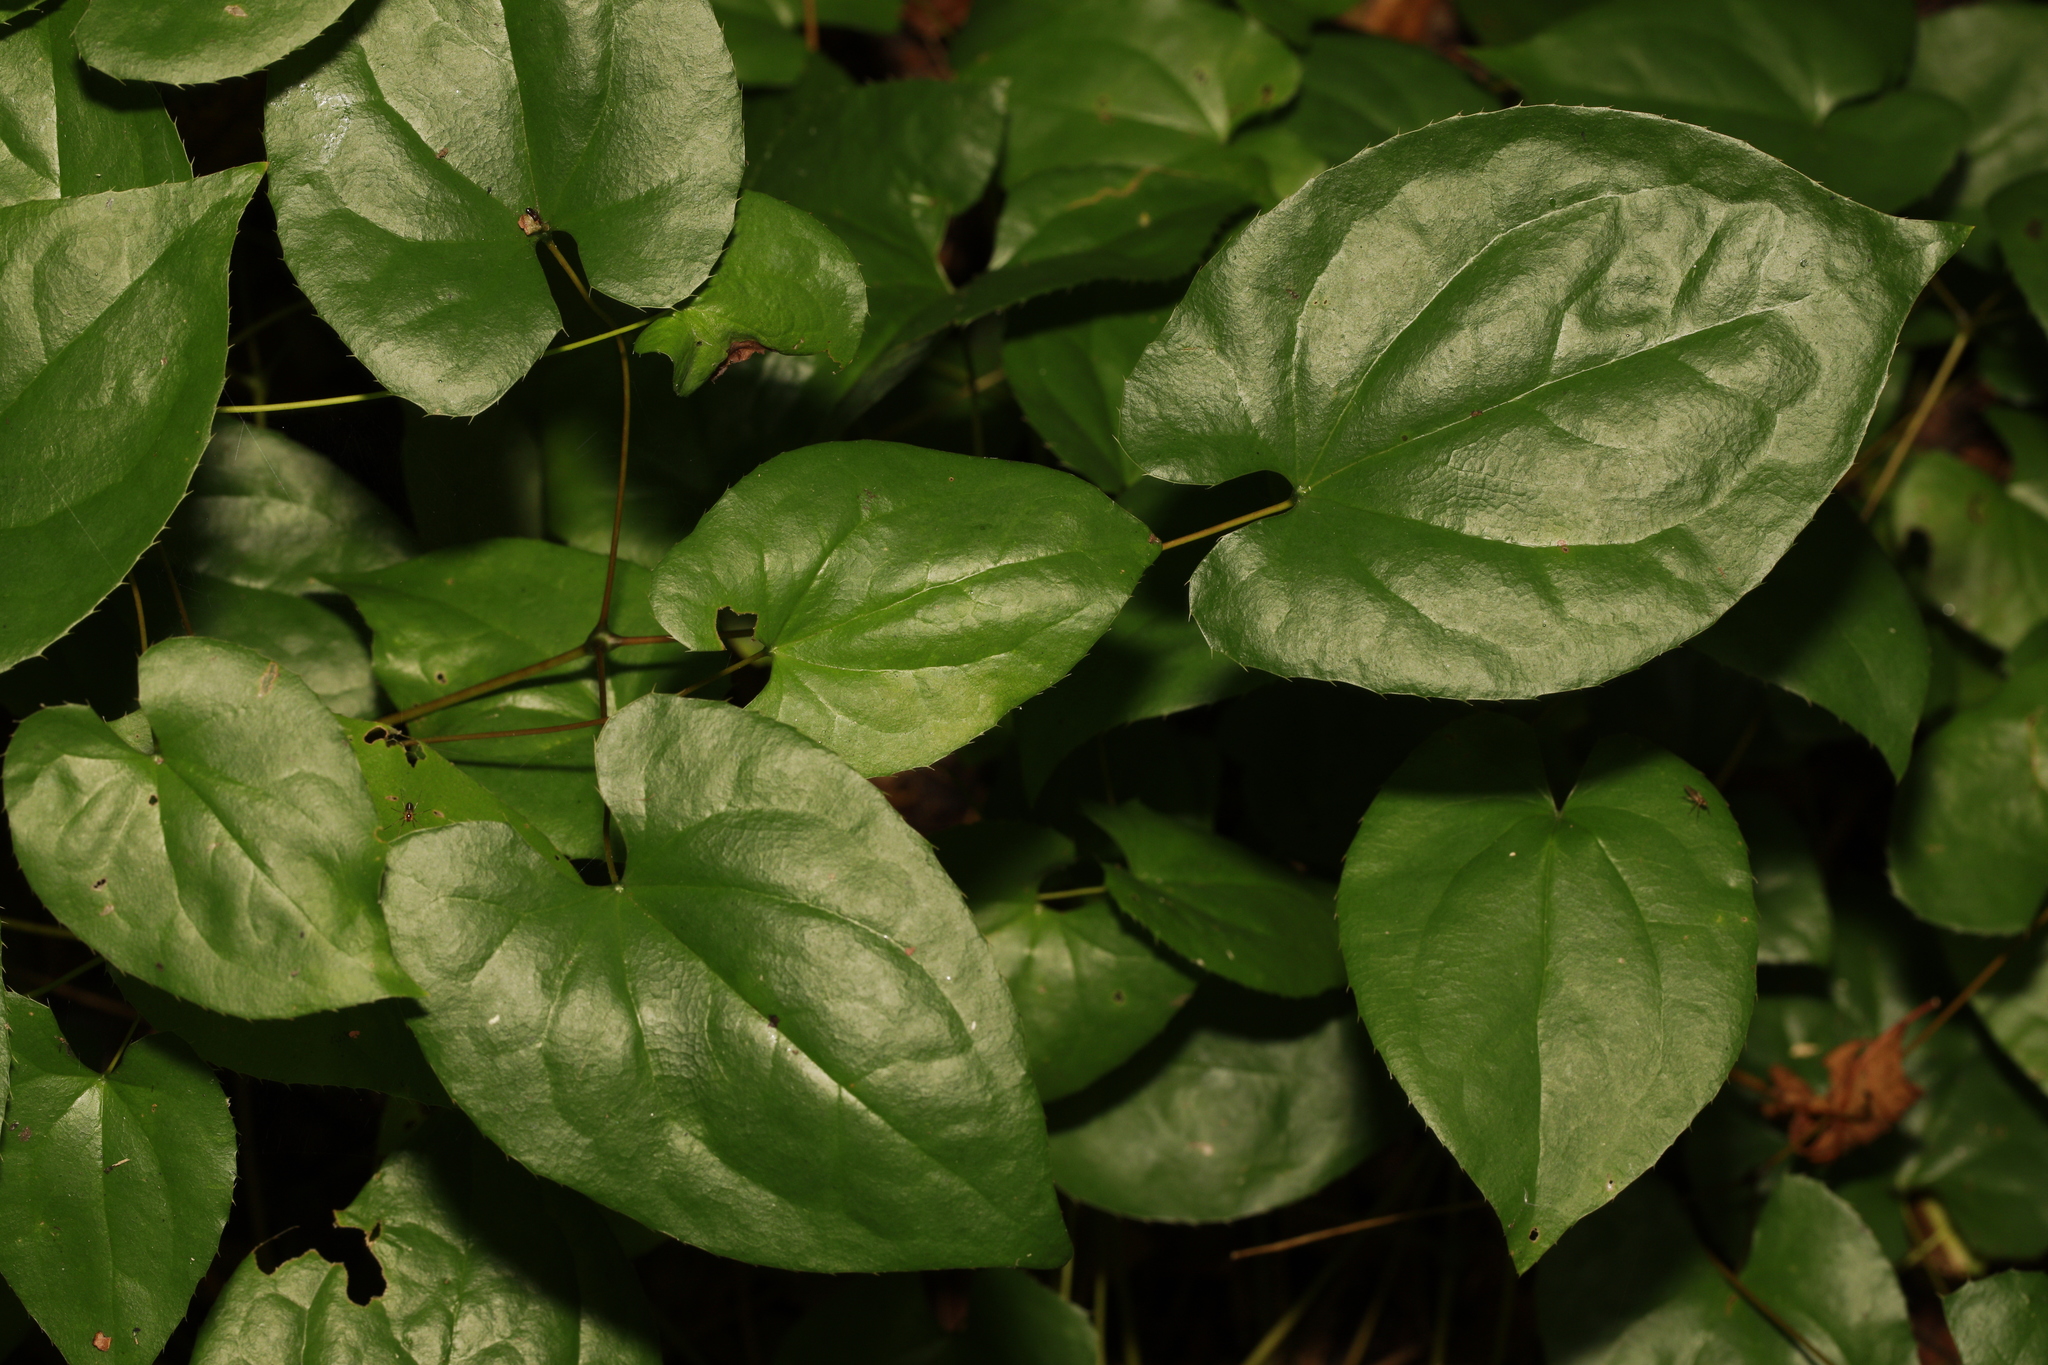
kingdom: Plantae
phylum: Tracheophyta
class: Magnoliopsida
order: Ranunculales
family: Berberidaceae
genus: Epimedium
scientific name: Epimedium versicolor
